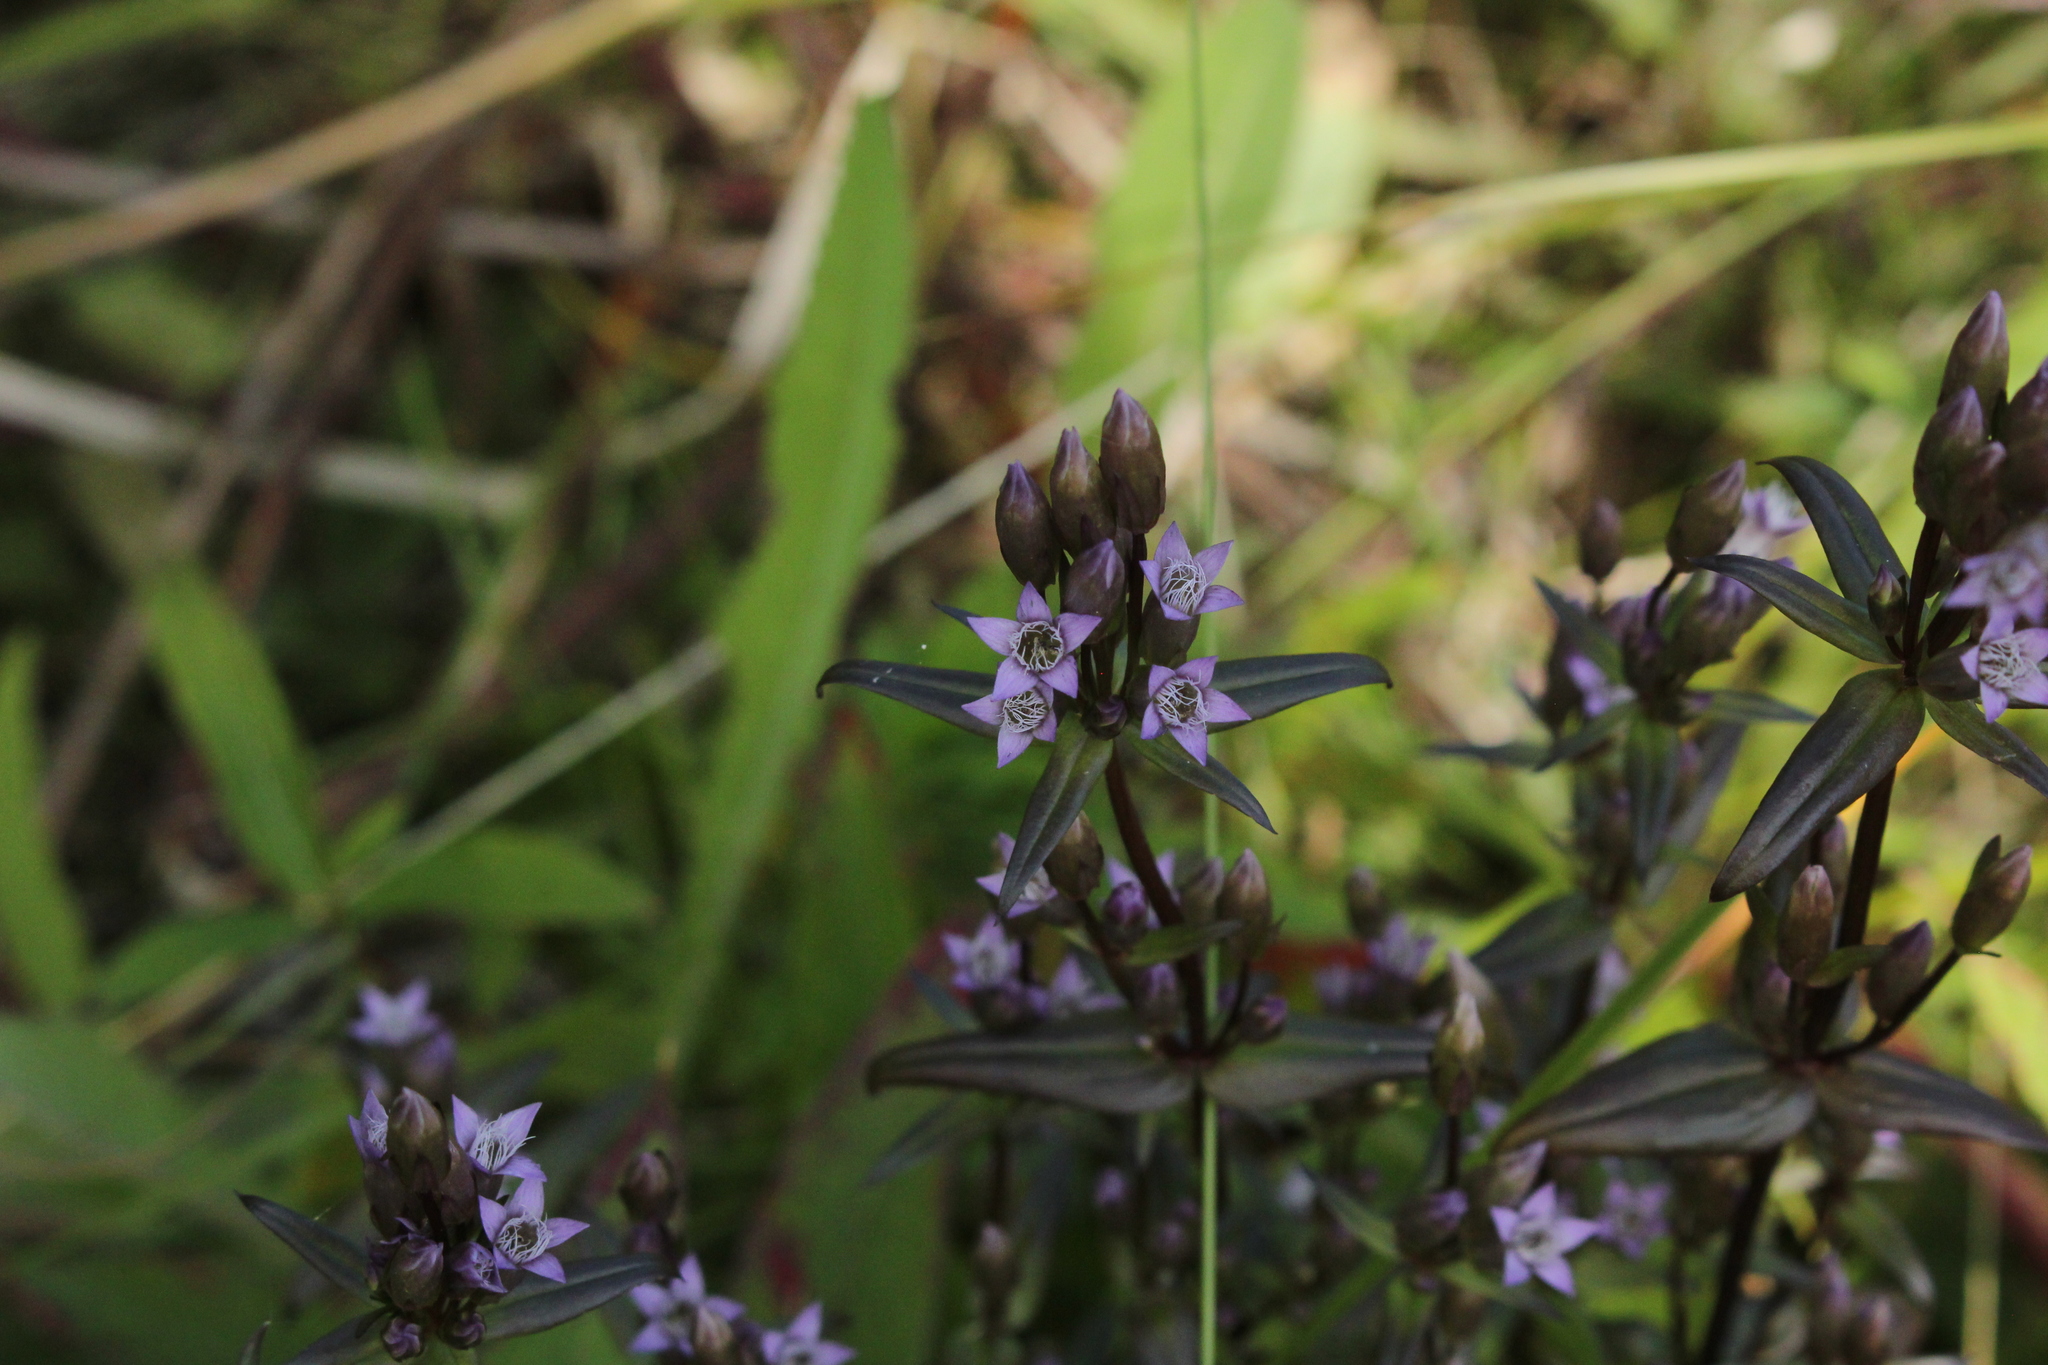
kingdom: Plantae
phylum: Tracheophyta
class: Magnoliopsida
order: Gentianales
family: Gentianaceae
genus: Gentianella
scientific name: Gentianella amarella
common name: Autumn gentian
